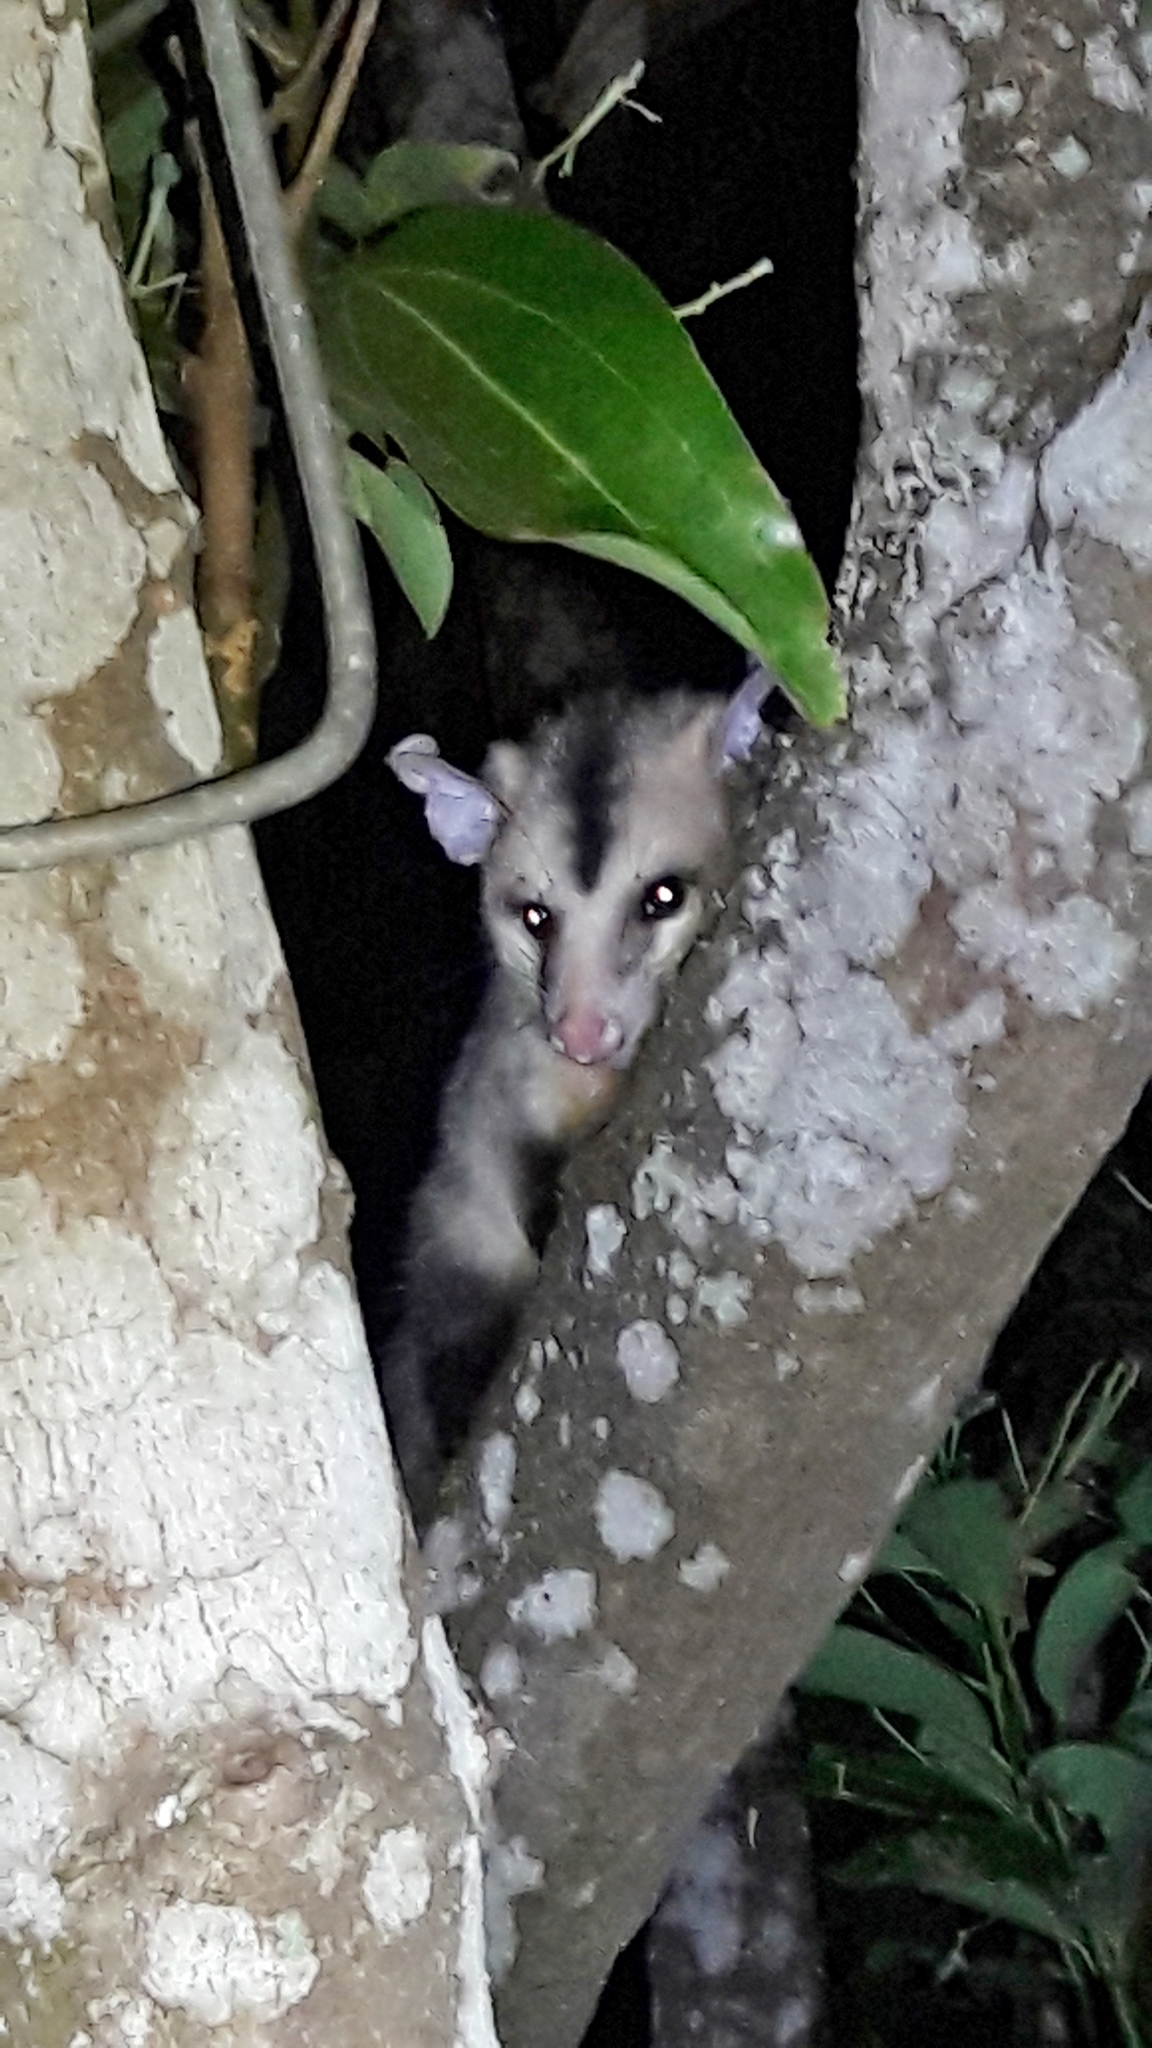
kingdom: Animalia
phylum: Chordata
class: Mammalia
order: Didelphimorphia
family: Didelphidae
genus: Didelphis
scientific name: Didelphis albiventris
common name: White-eared opossum
